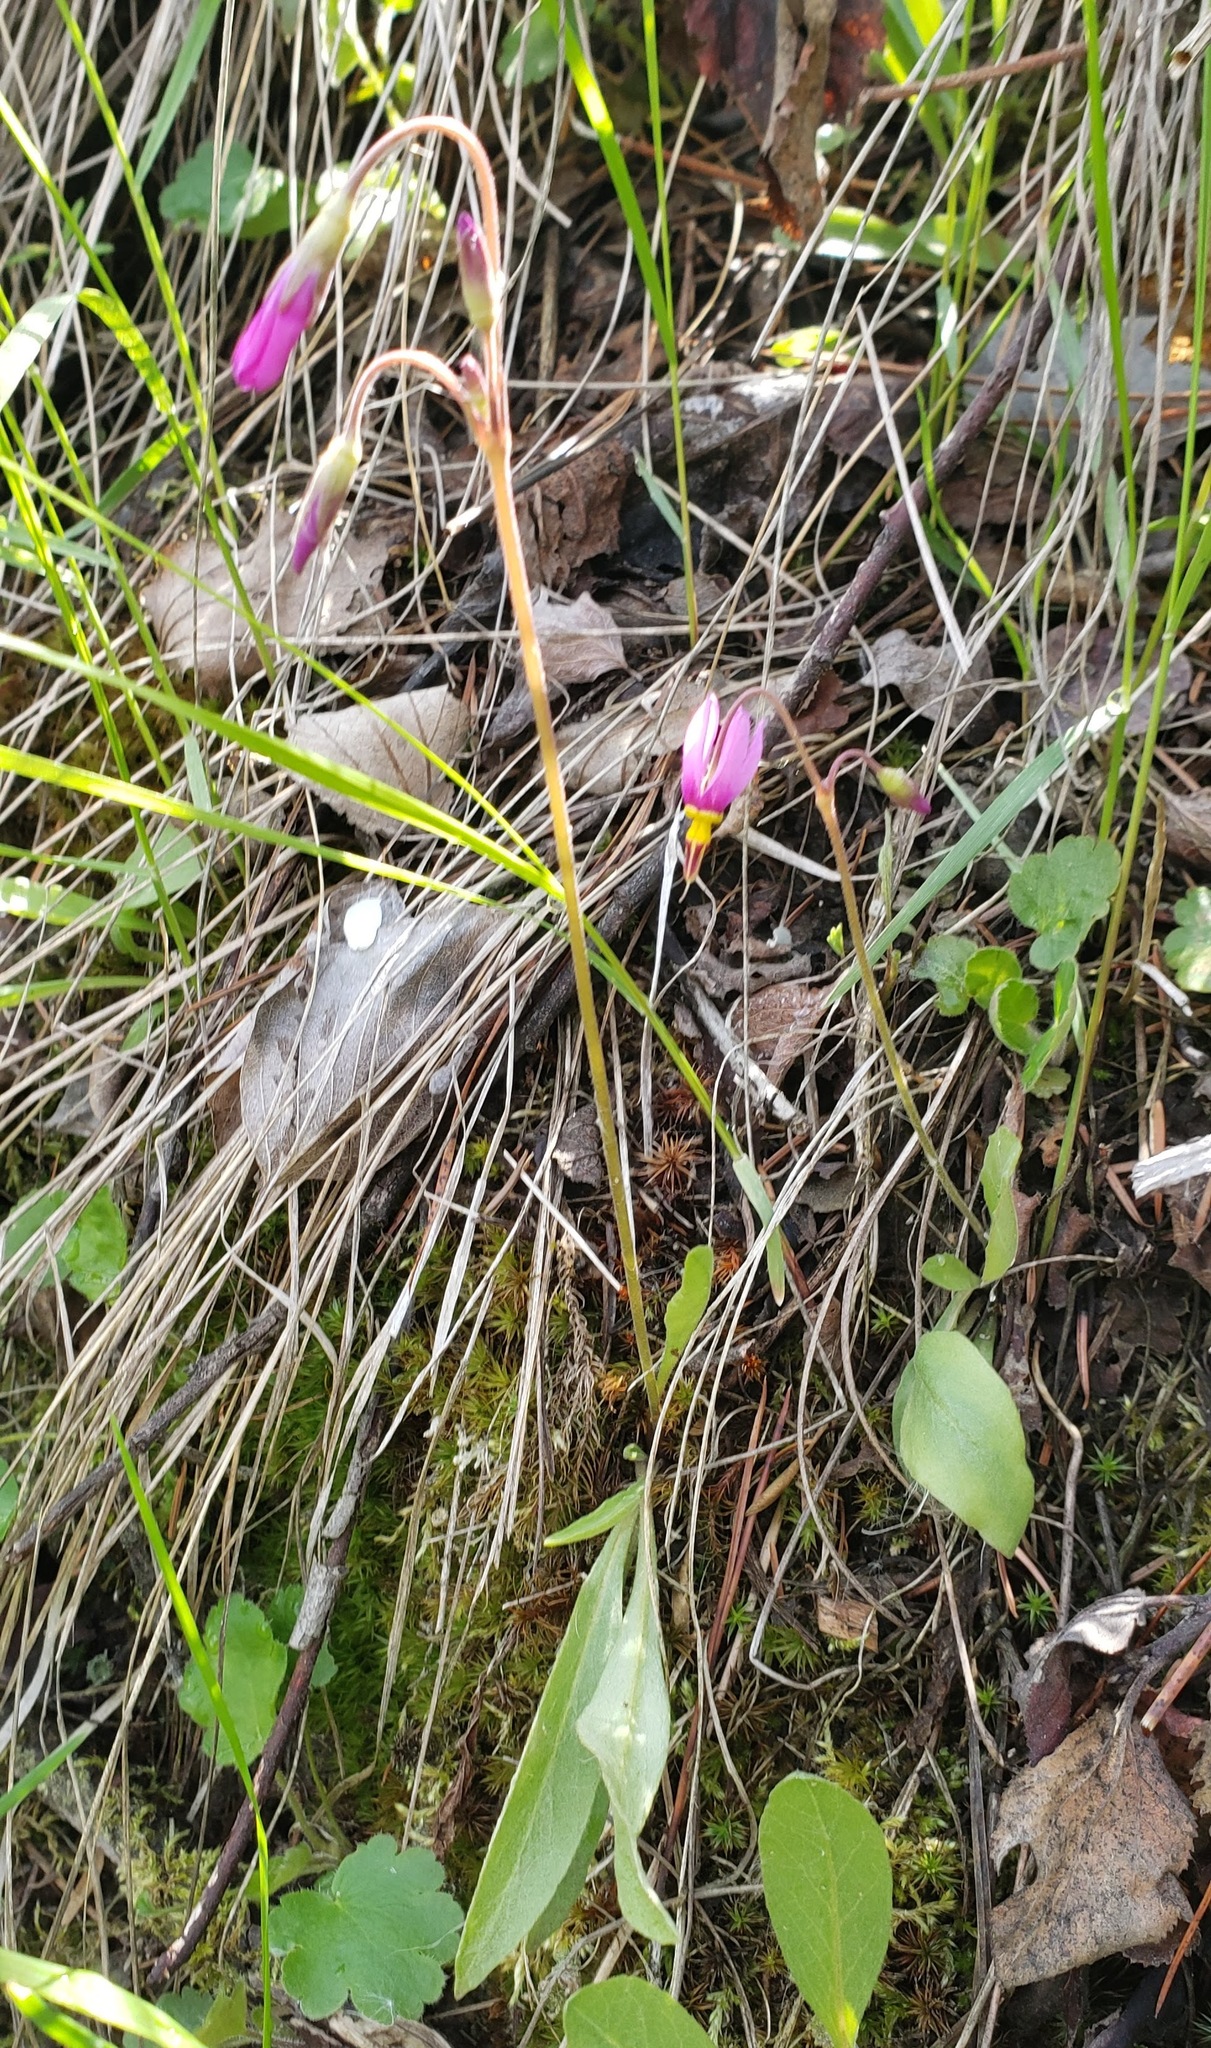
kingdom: Plantae
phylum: Tracheophyta
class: Magnoliopsida
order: Ericales
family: Primulaceae
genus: Dodecatheon
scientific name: Dodecatheon pulchellum
